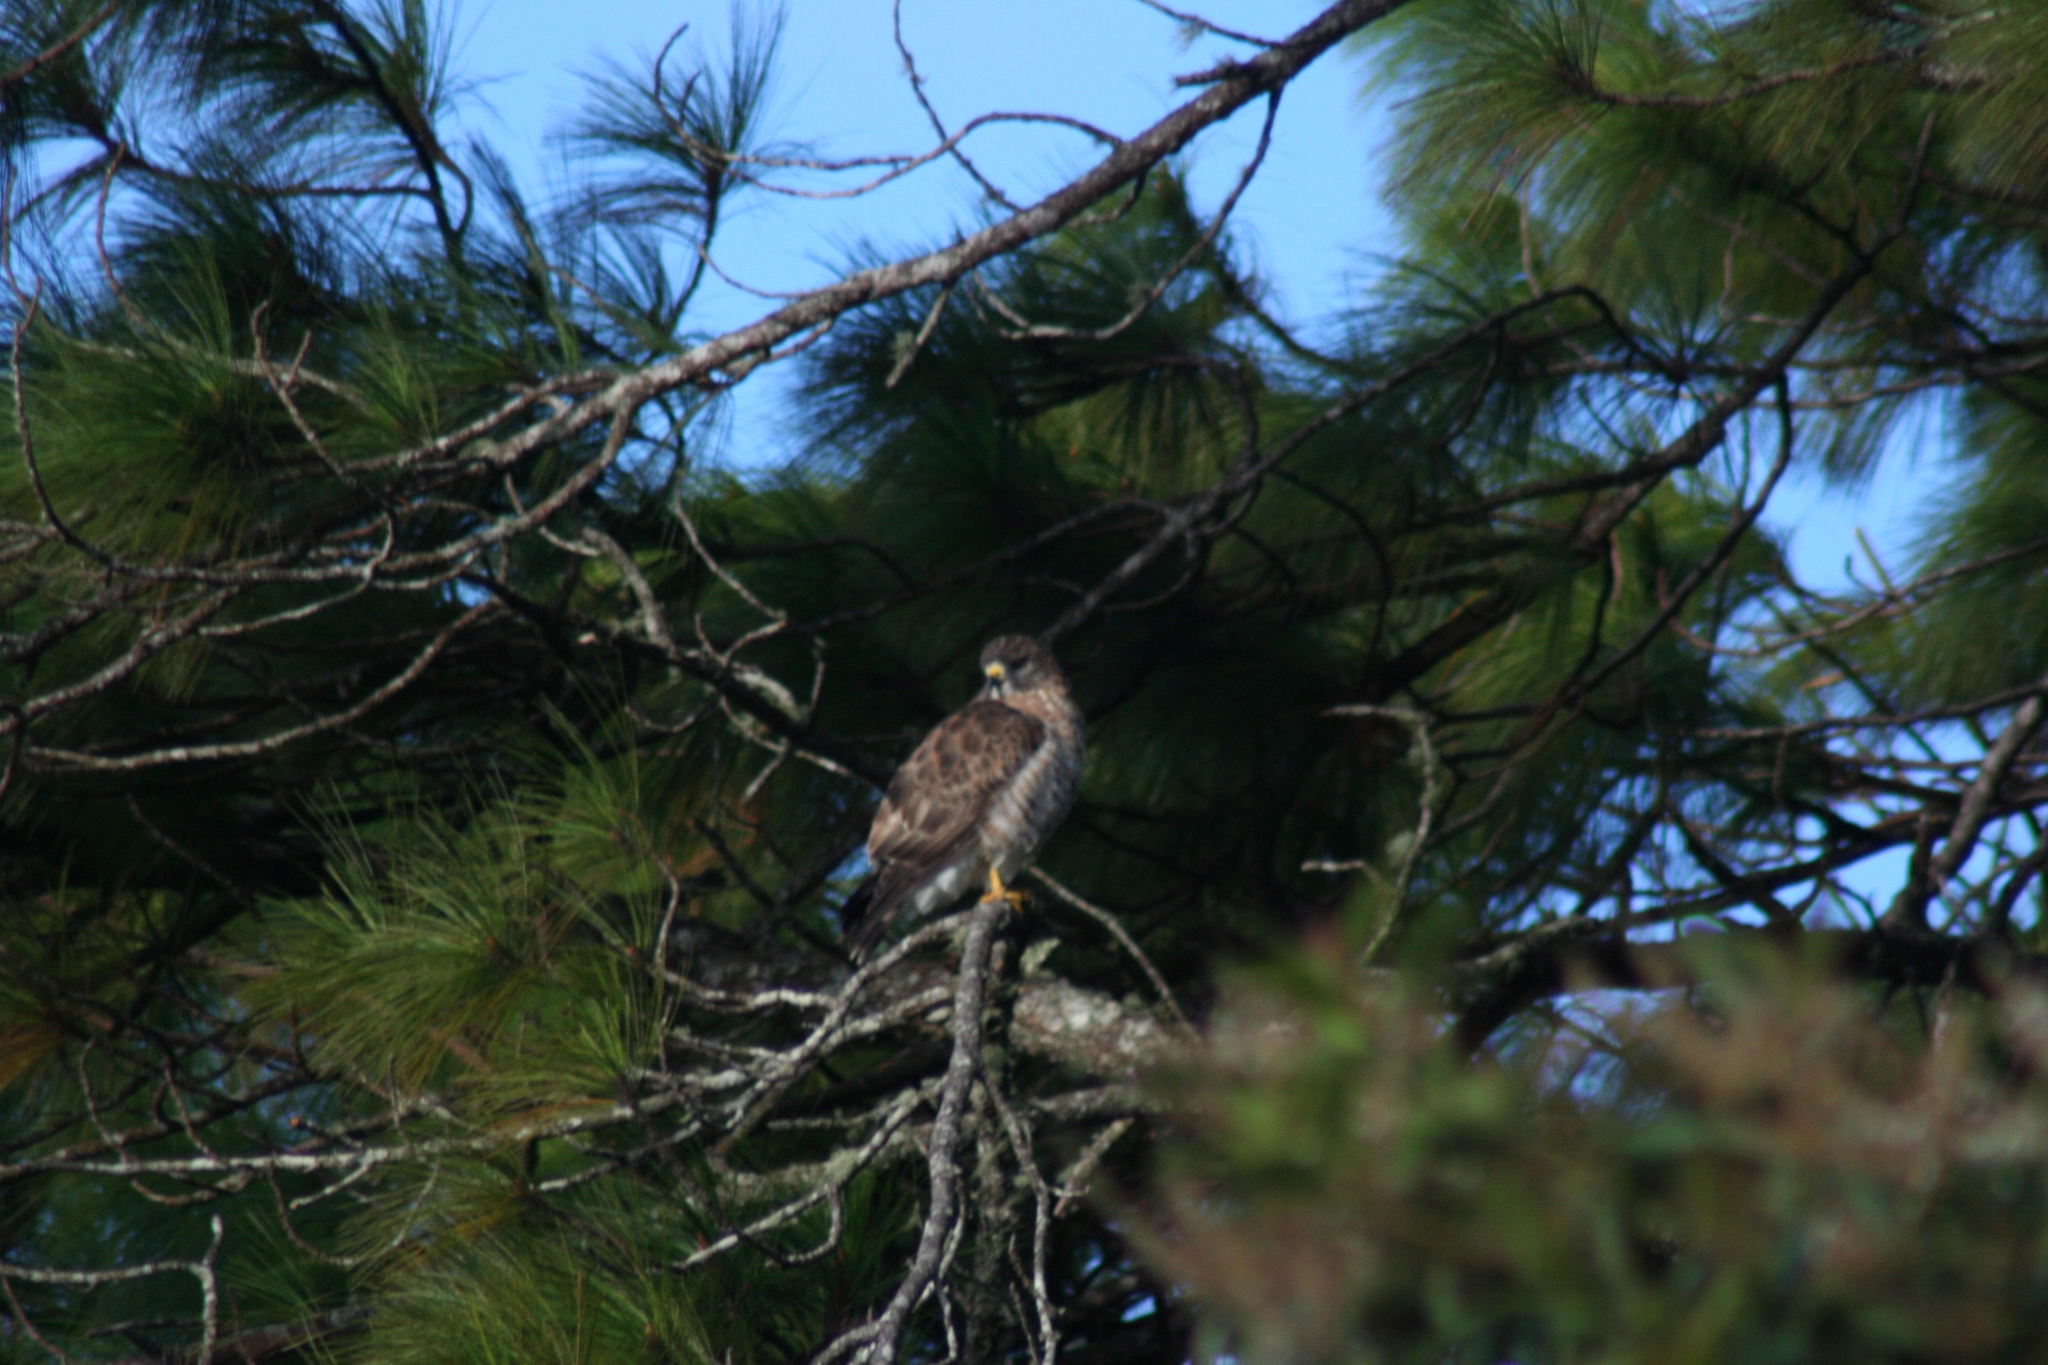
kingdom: Animalia
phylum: Chordata
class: Aves
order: Accipitriformes
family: Accipitridae
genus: Buteo
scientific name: Buteo platypterus
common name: Broad-winged hawk
